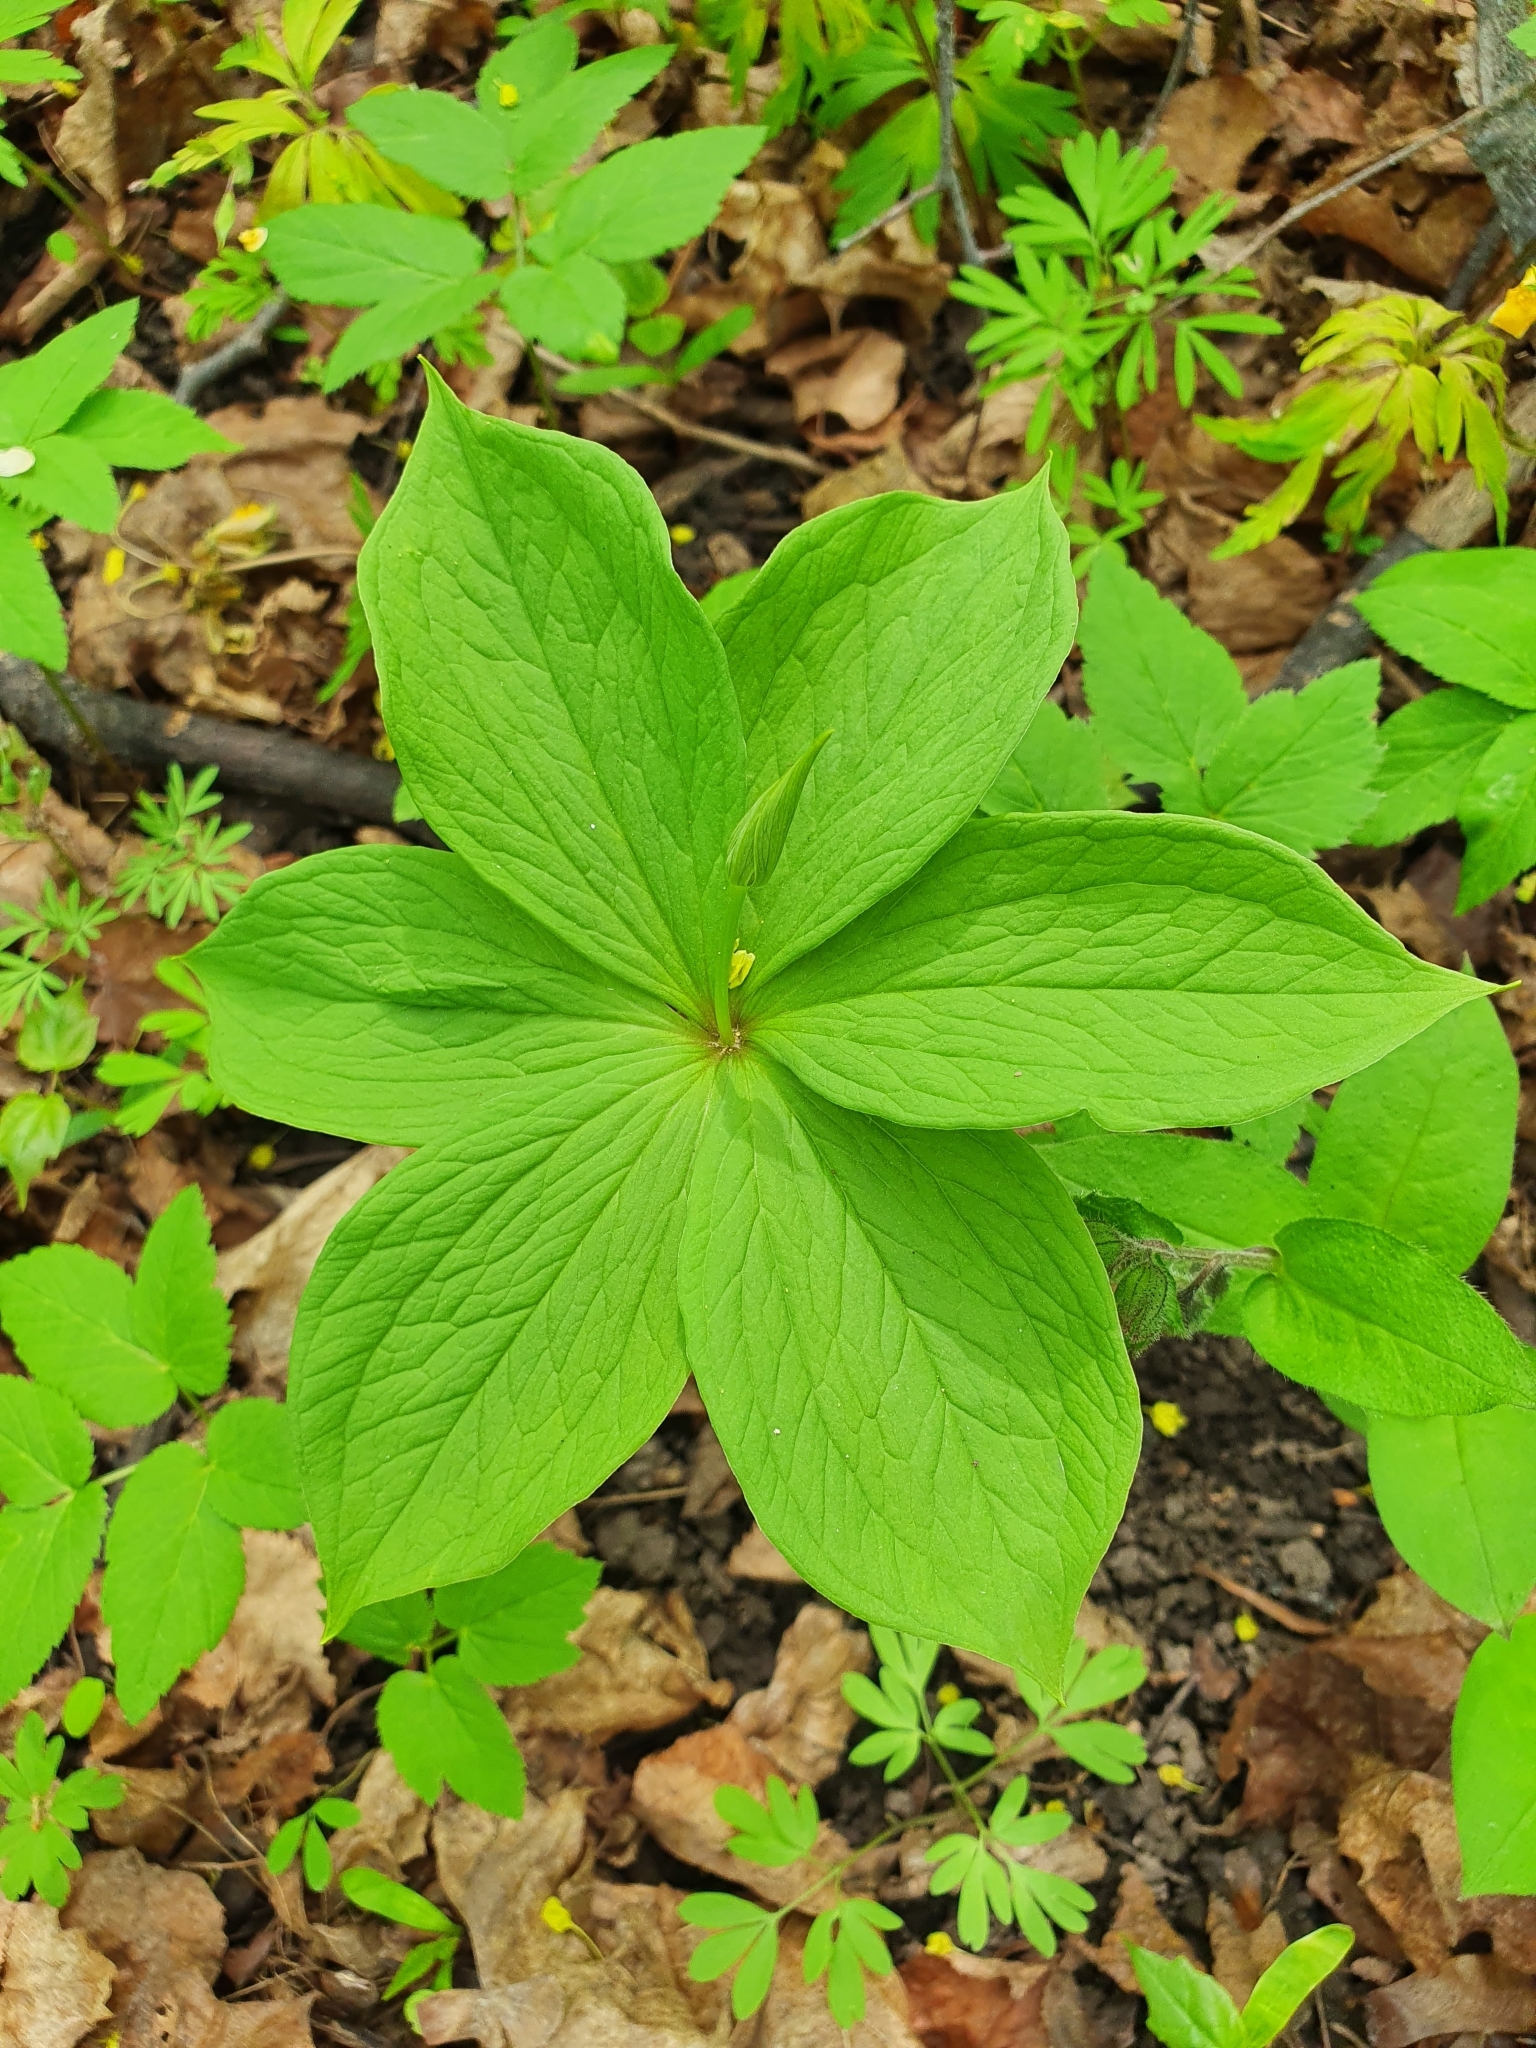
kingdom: Plantae
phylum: Tracheophyta
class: Liliopsida
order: Liliales
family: Melanthiaceae
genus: Paris
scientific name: Paris quadrifolia
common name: Herb-paris
